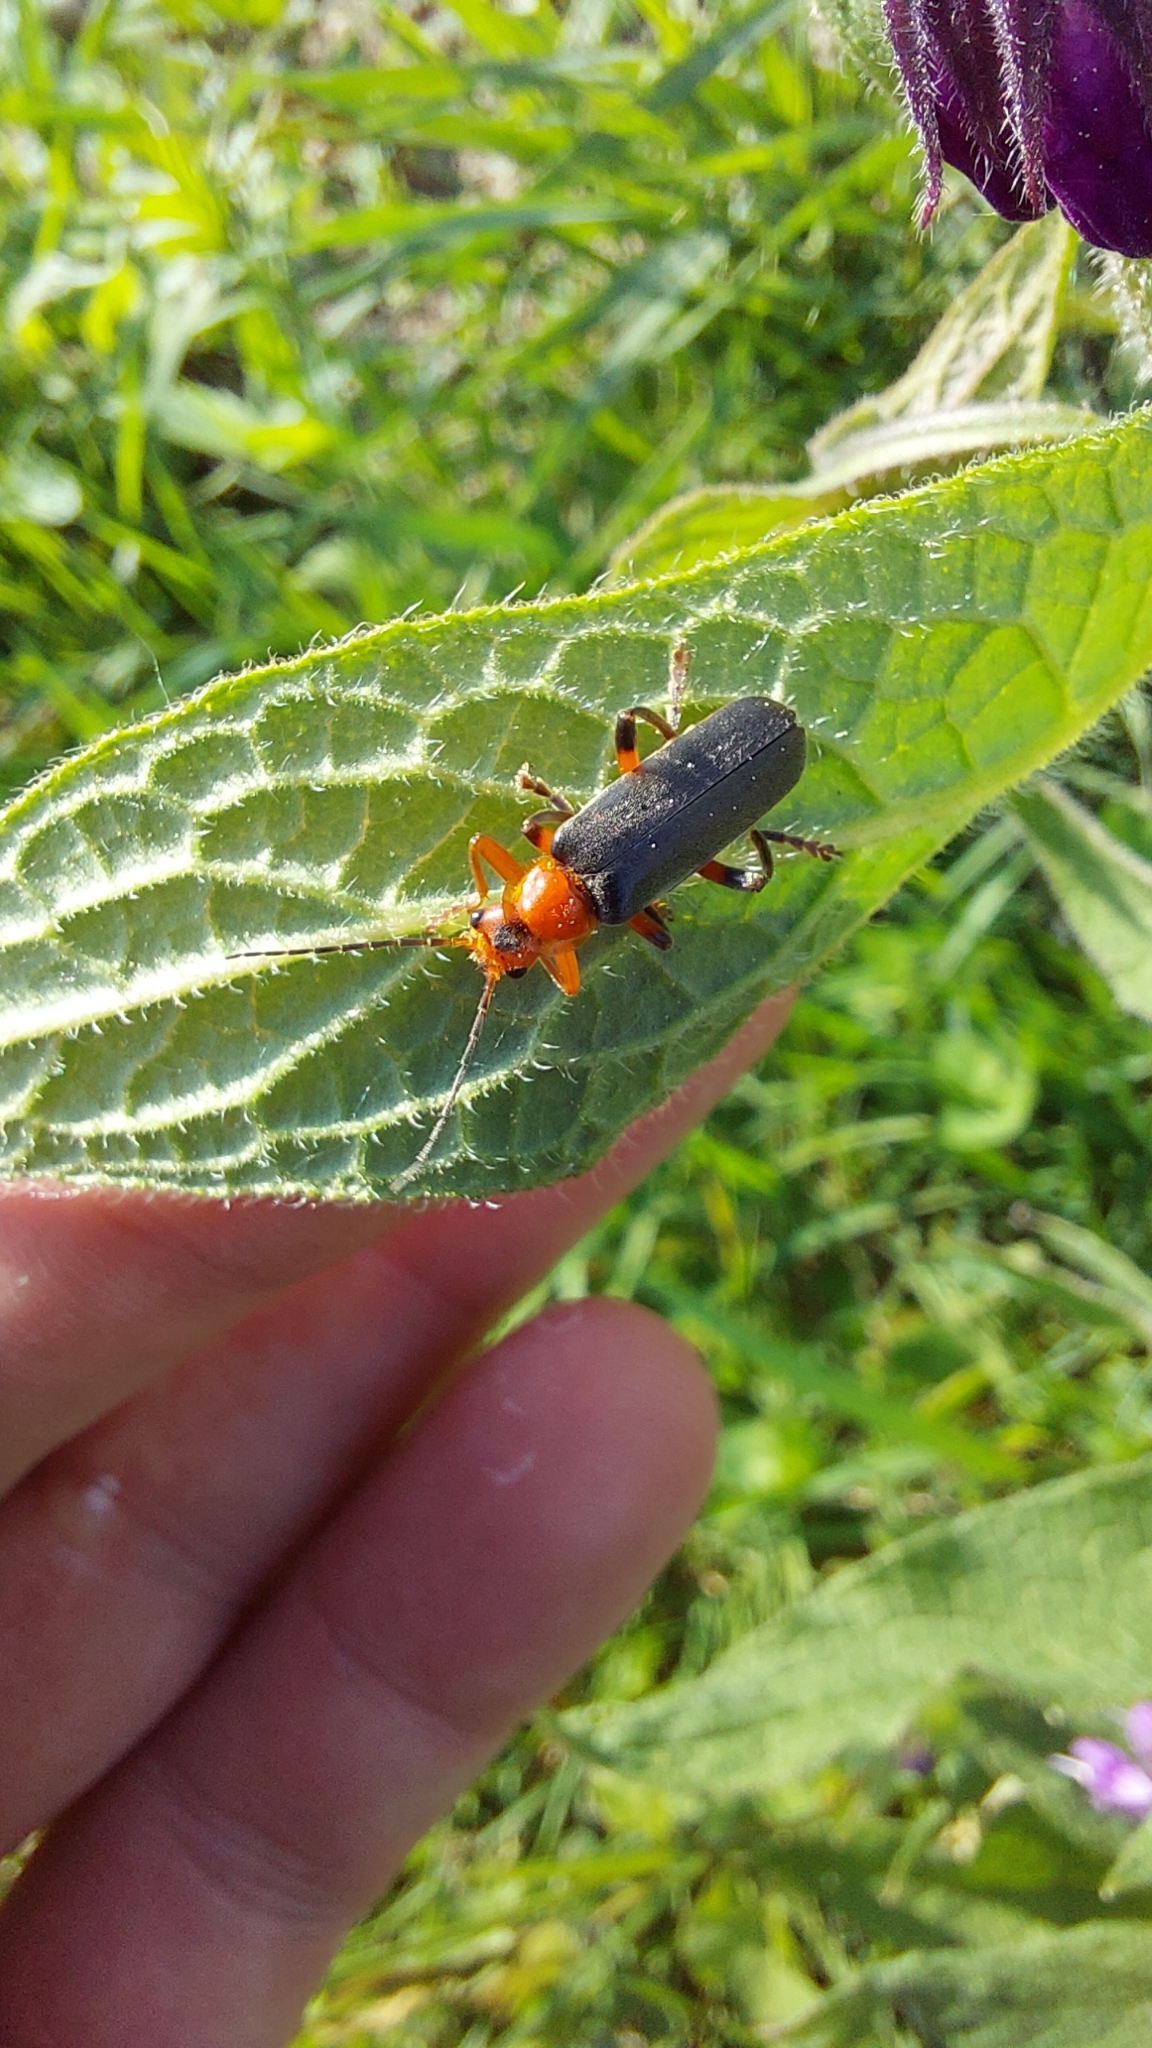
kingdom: Animalia
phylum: Arthropoda
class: Insecta
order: Coleoptera
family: Cantharidae
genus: Cantharis
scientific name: Cantharis livida
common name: Livid soldier beetle
